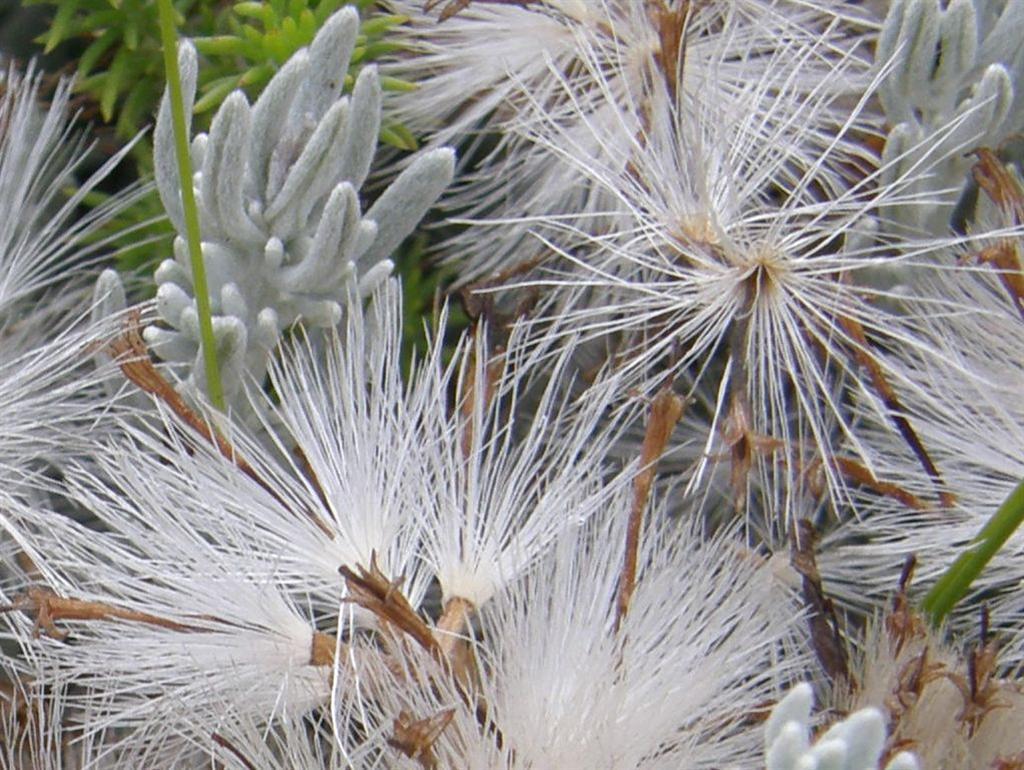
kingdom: Plantae
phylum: Tracheophyta
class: Magnoliopsida
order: Asterales
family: Asteraceae
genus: Printzia
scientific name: Printzia aromatica
